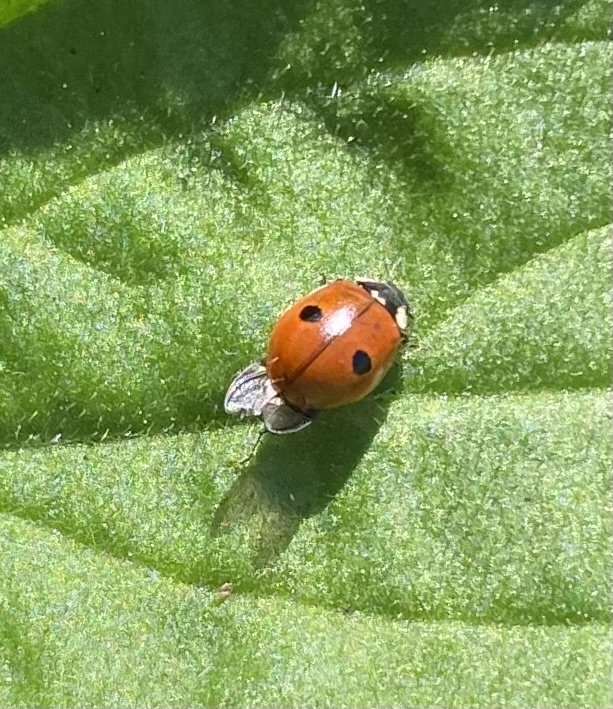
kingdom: Animalia
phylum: Arthropoda
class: Insecta
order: Coleoptera
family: Coccinellidae
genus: Adalia
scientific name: Adalia bipunctata
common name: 2-spot ladybird
